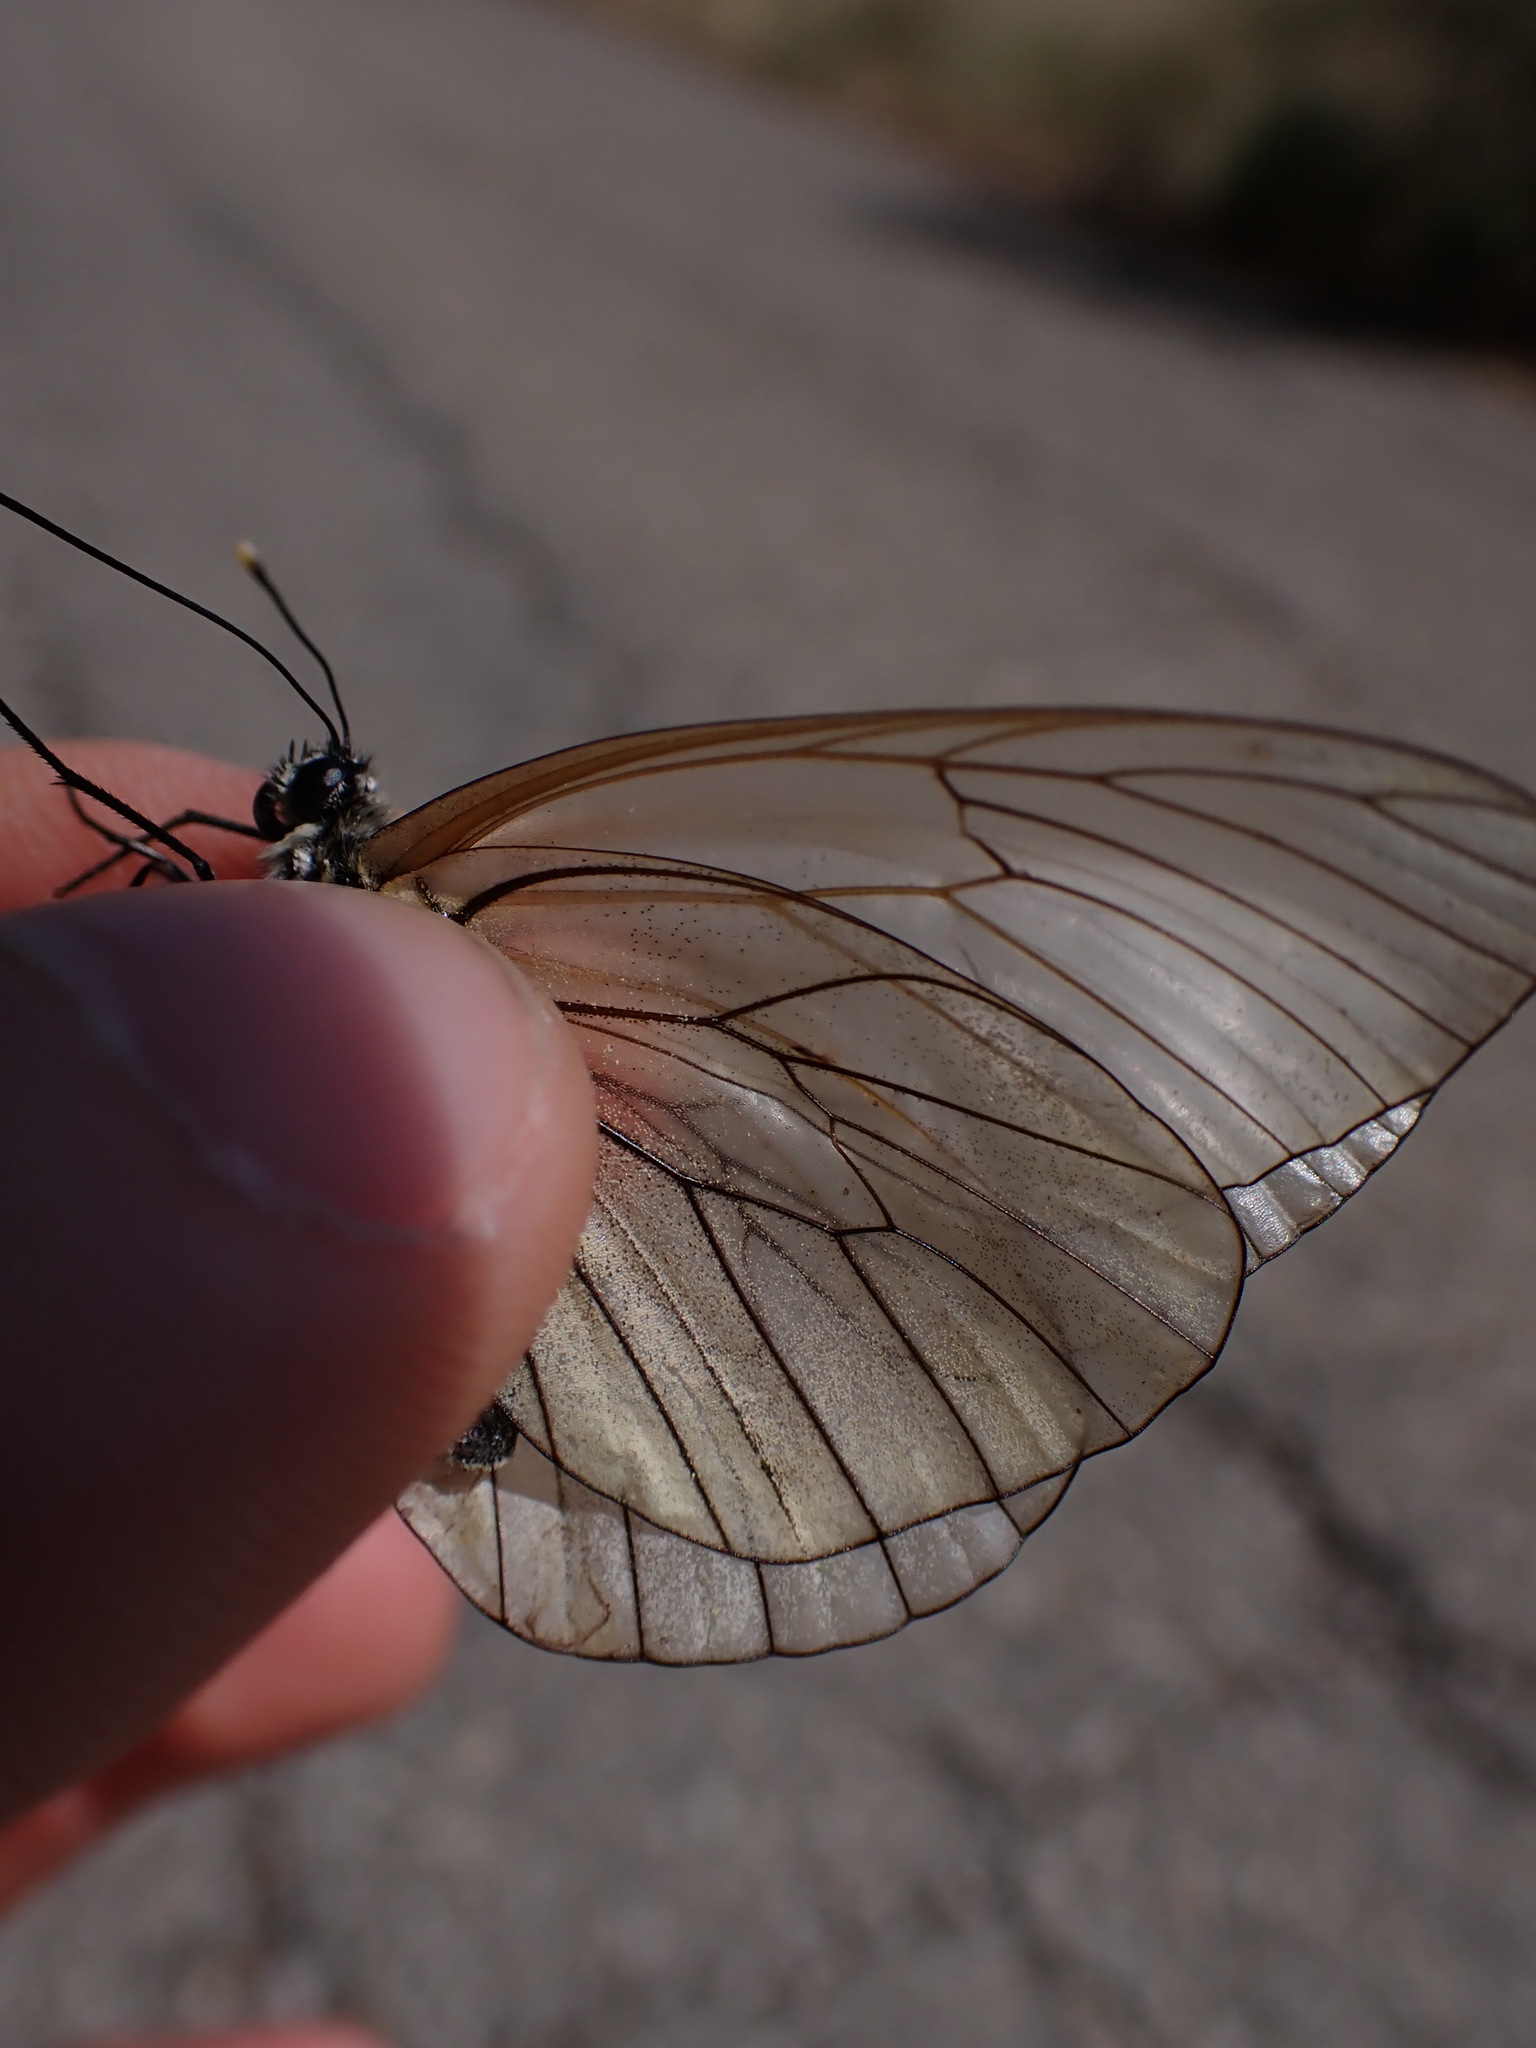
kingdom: Animalia
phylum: Arthropoda
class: Insecta
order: Lepidoptera
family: Pieridae
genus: Aporia
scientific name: Aporia crataegi
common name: Black-veined white
